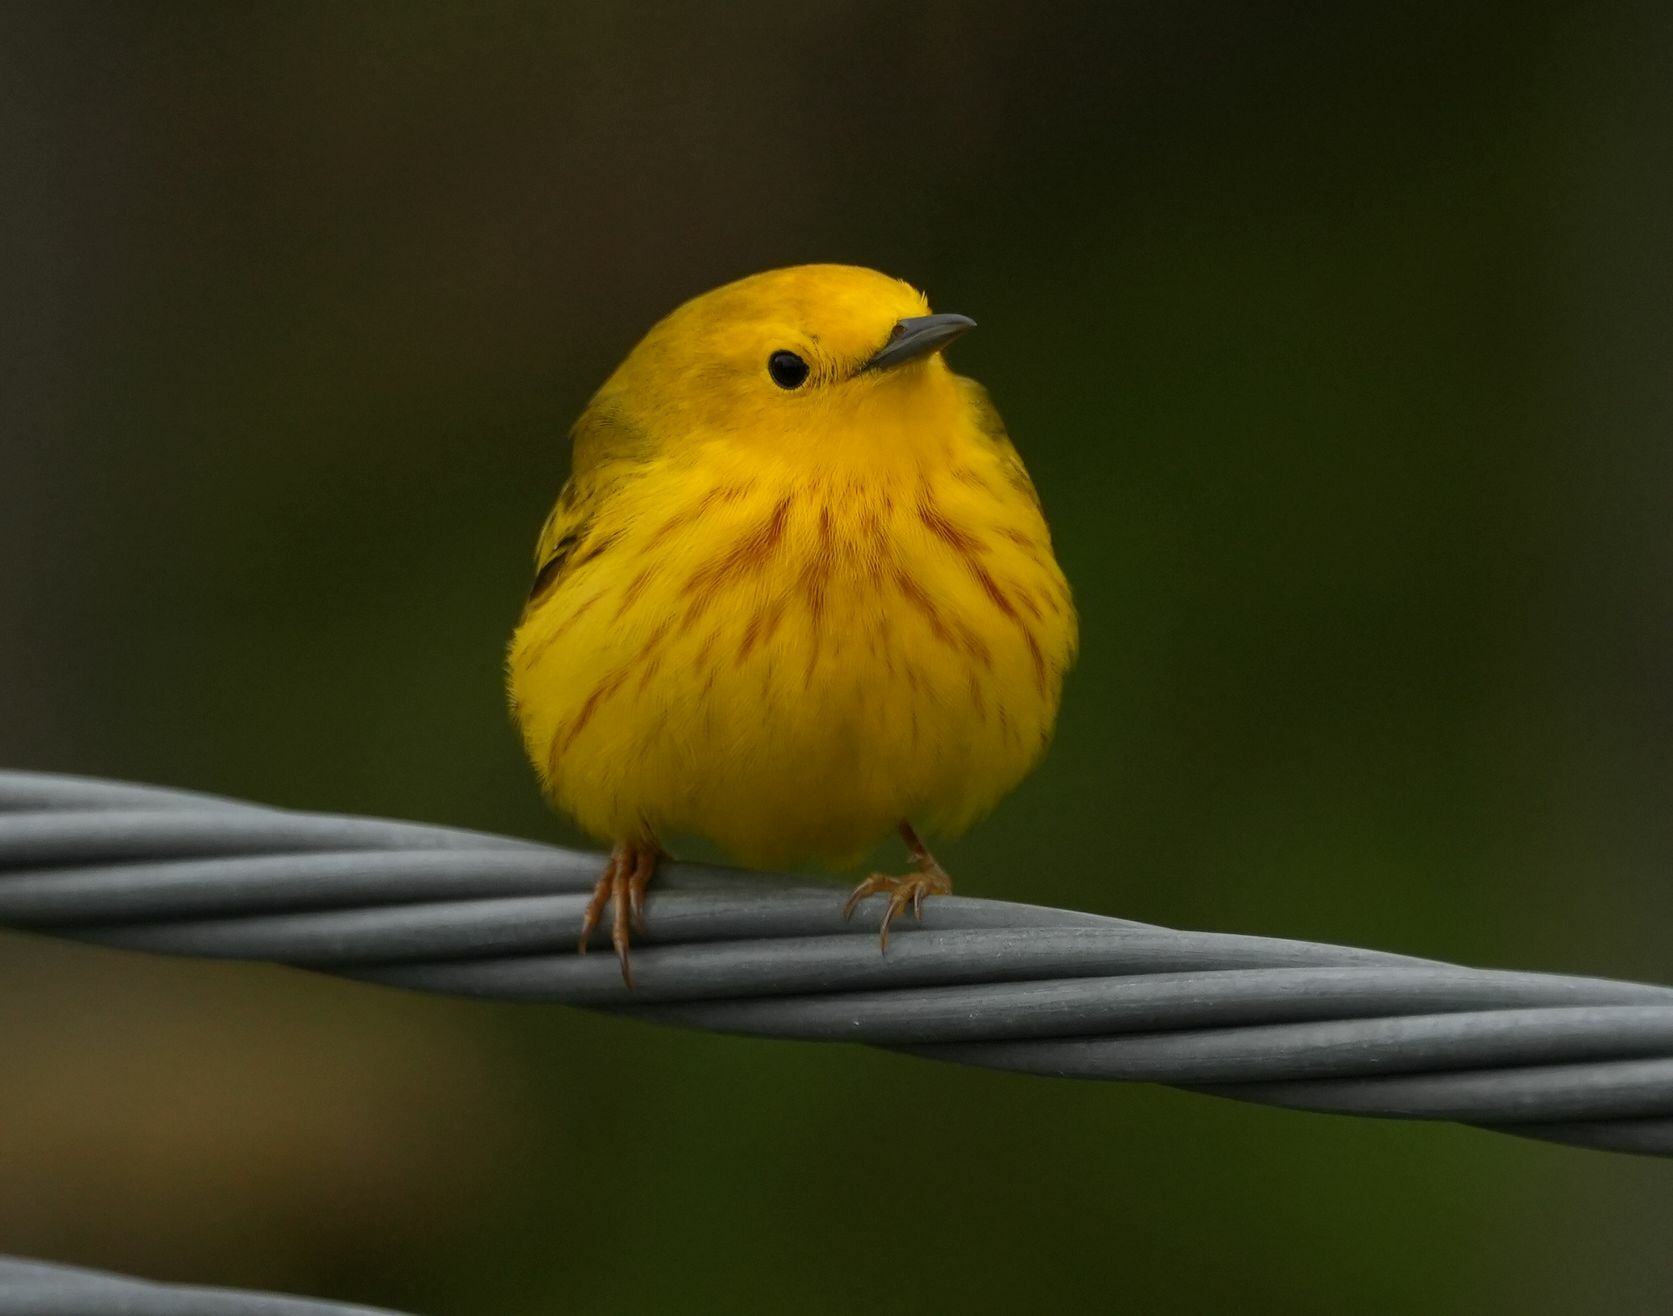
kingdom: Animalia
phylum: Chordata
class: Aves
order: Passeriformes
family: Parulidae
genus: Setophaga
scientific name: Setophaga petechia
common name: Yellow warbler
